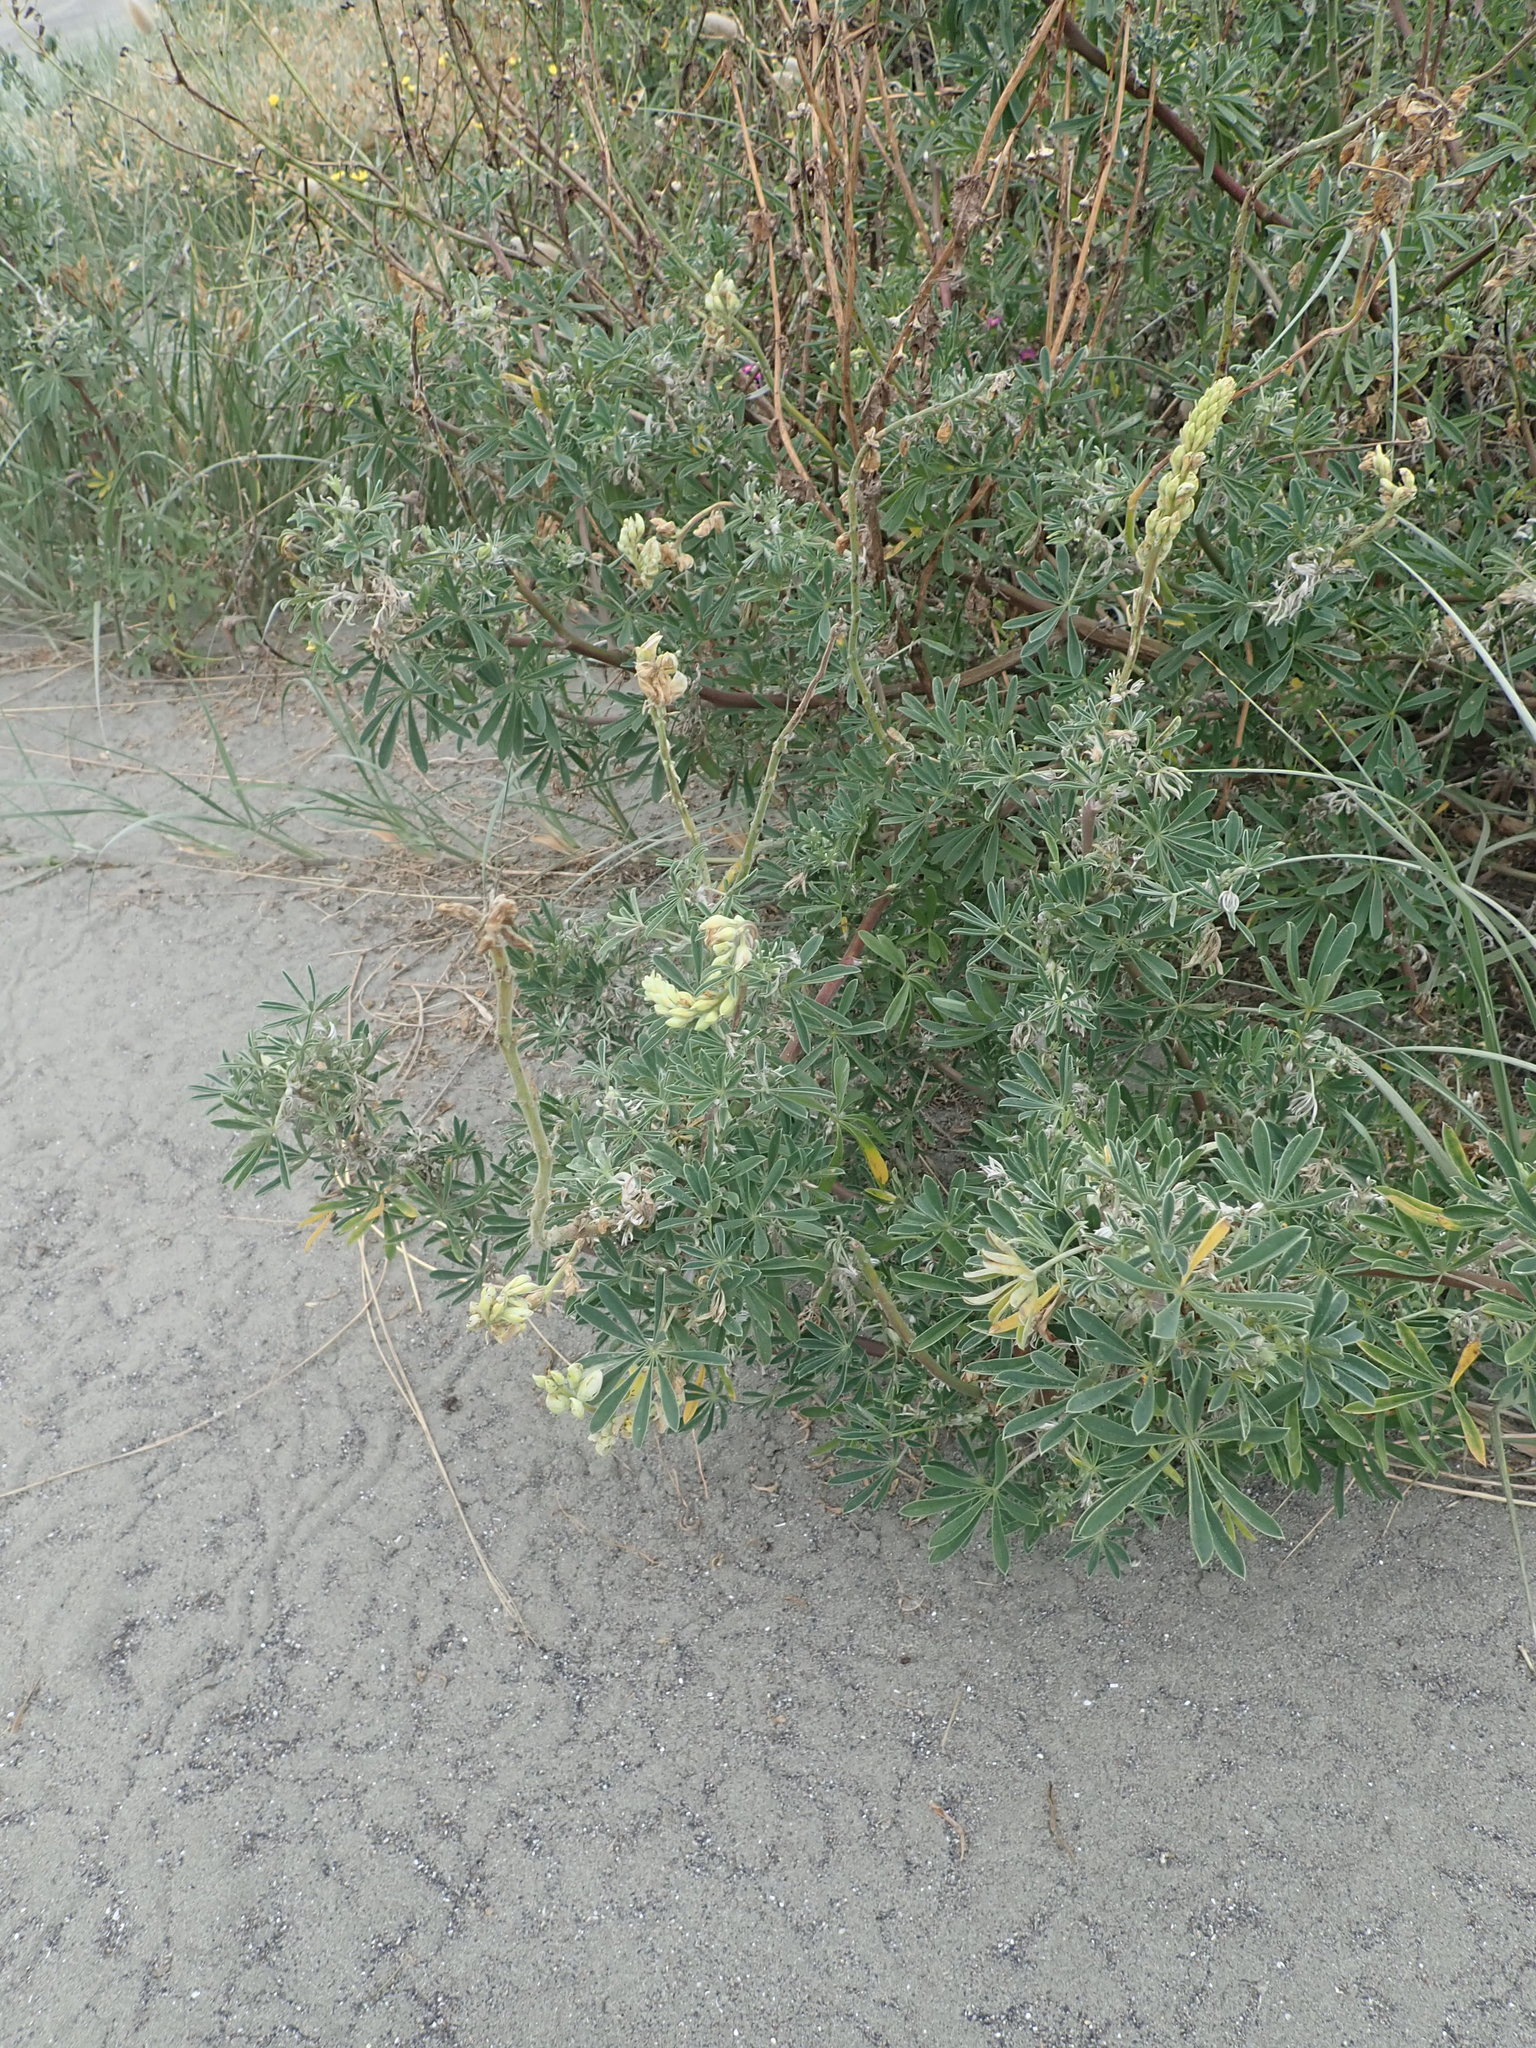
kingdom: Plantae
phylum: Tracheophyta
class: Magnoliopsida
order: Fabales
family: Fabaceae
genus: Lupinus
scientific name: Lupinus arboreus
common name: Yellow bush lupine
